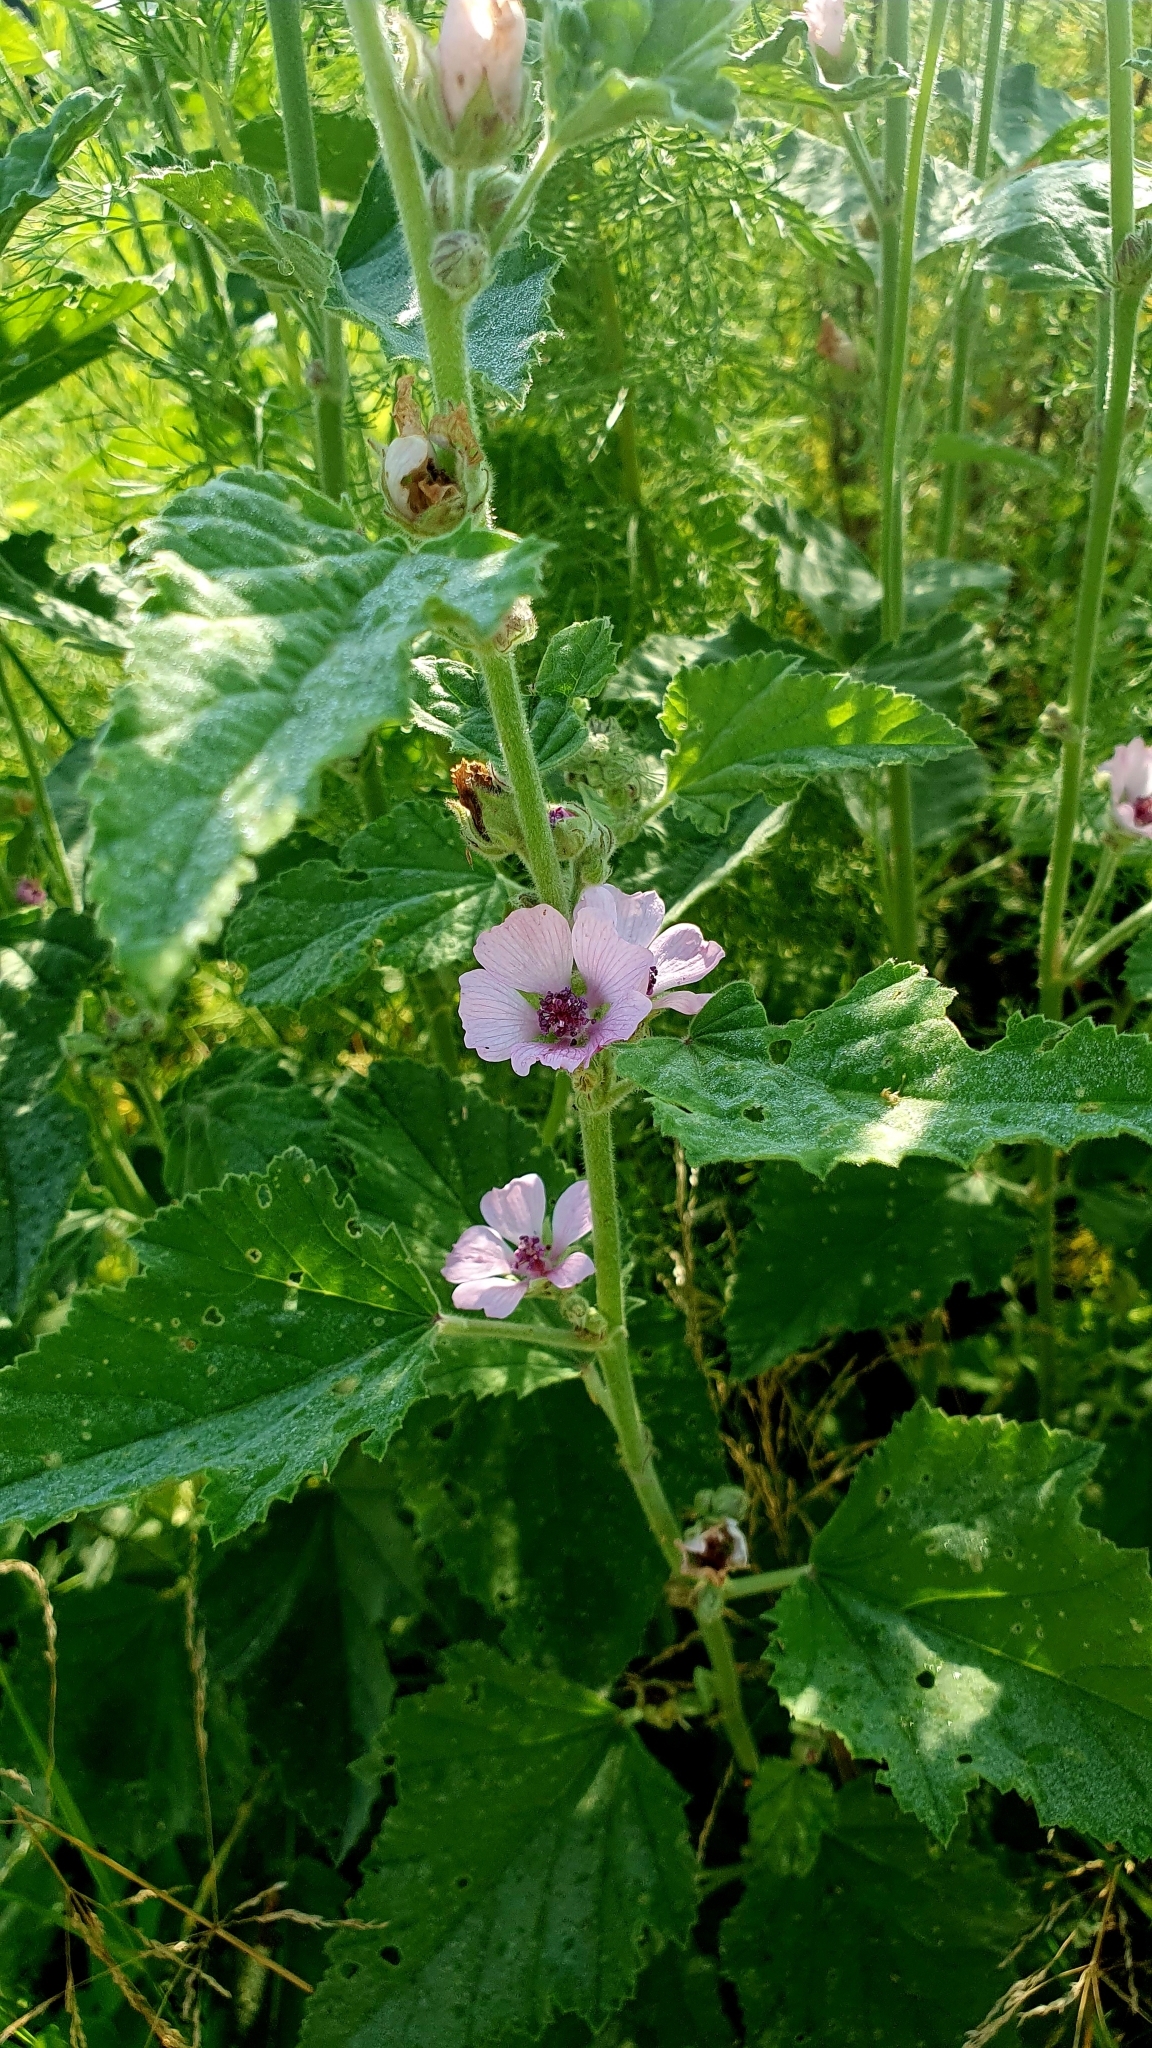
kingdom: Plantae
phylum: Tracheophyta
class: Magnoliopsida
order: Malvales
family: Malvaceae
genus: Althaea
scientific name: Althaea officinalis
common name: Marsh-mallow
